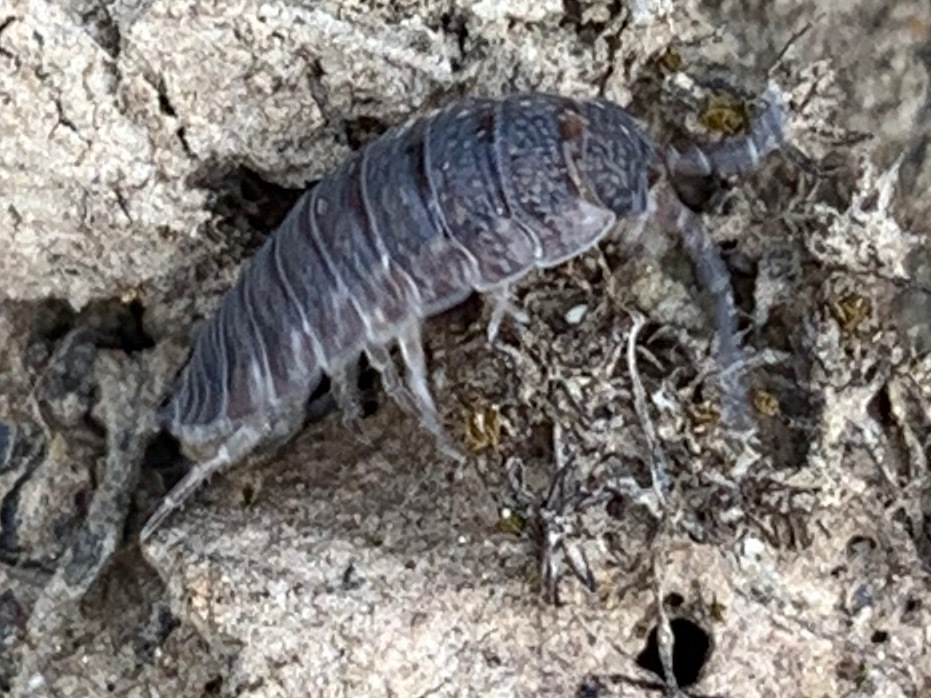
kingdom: Animalia
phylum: Arthropoda
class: Malacostraca
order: Isopoda
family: Porcellionidae
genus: Porcellio
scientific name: Porcellio scaber
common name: Common rough woodlouse
